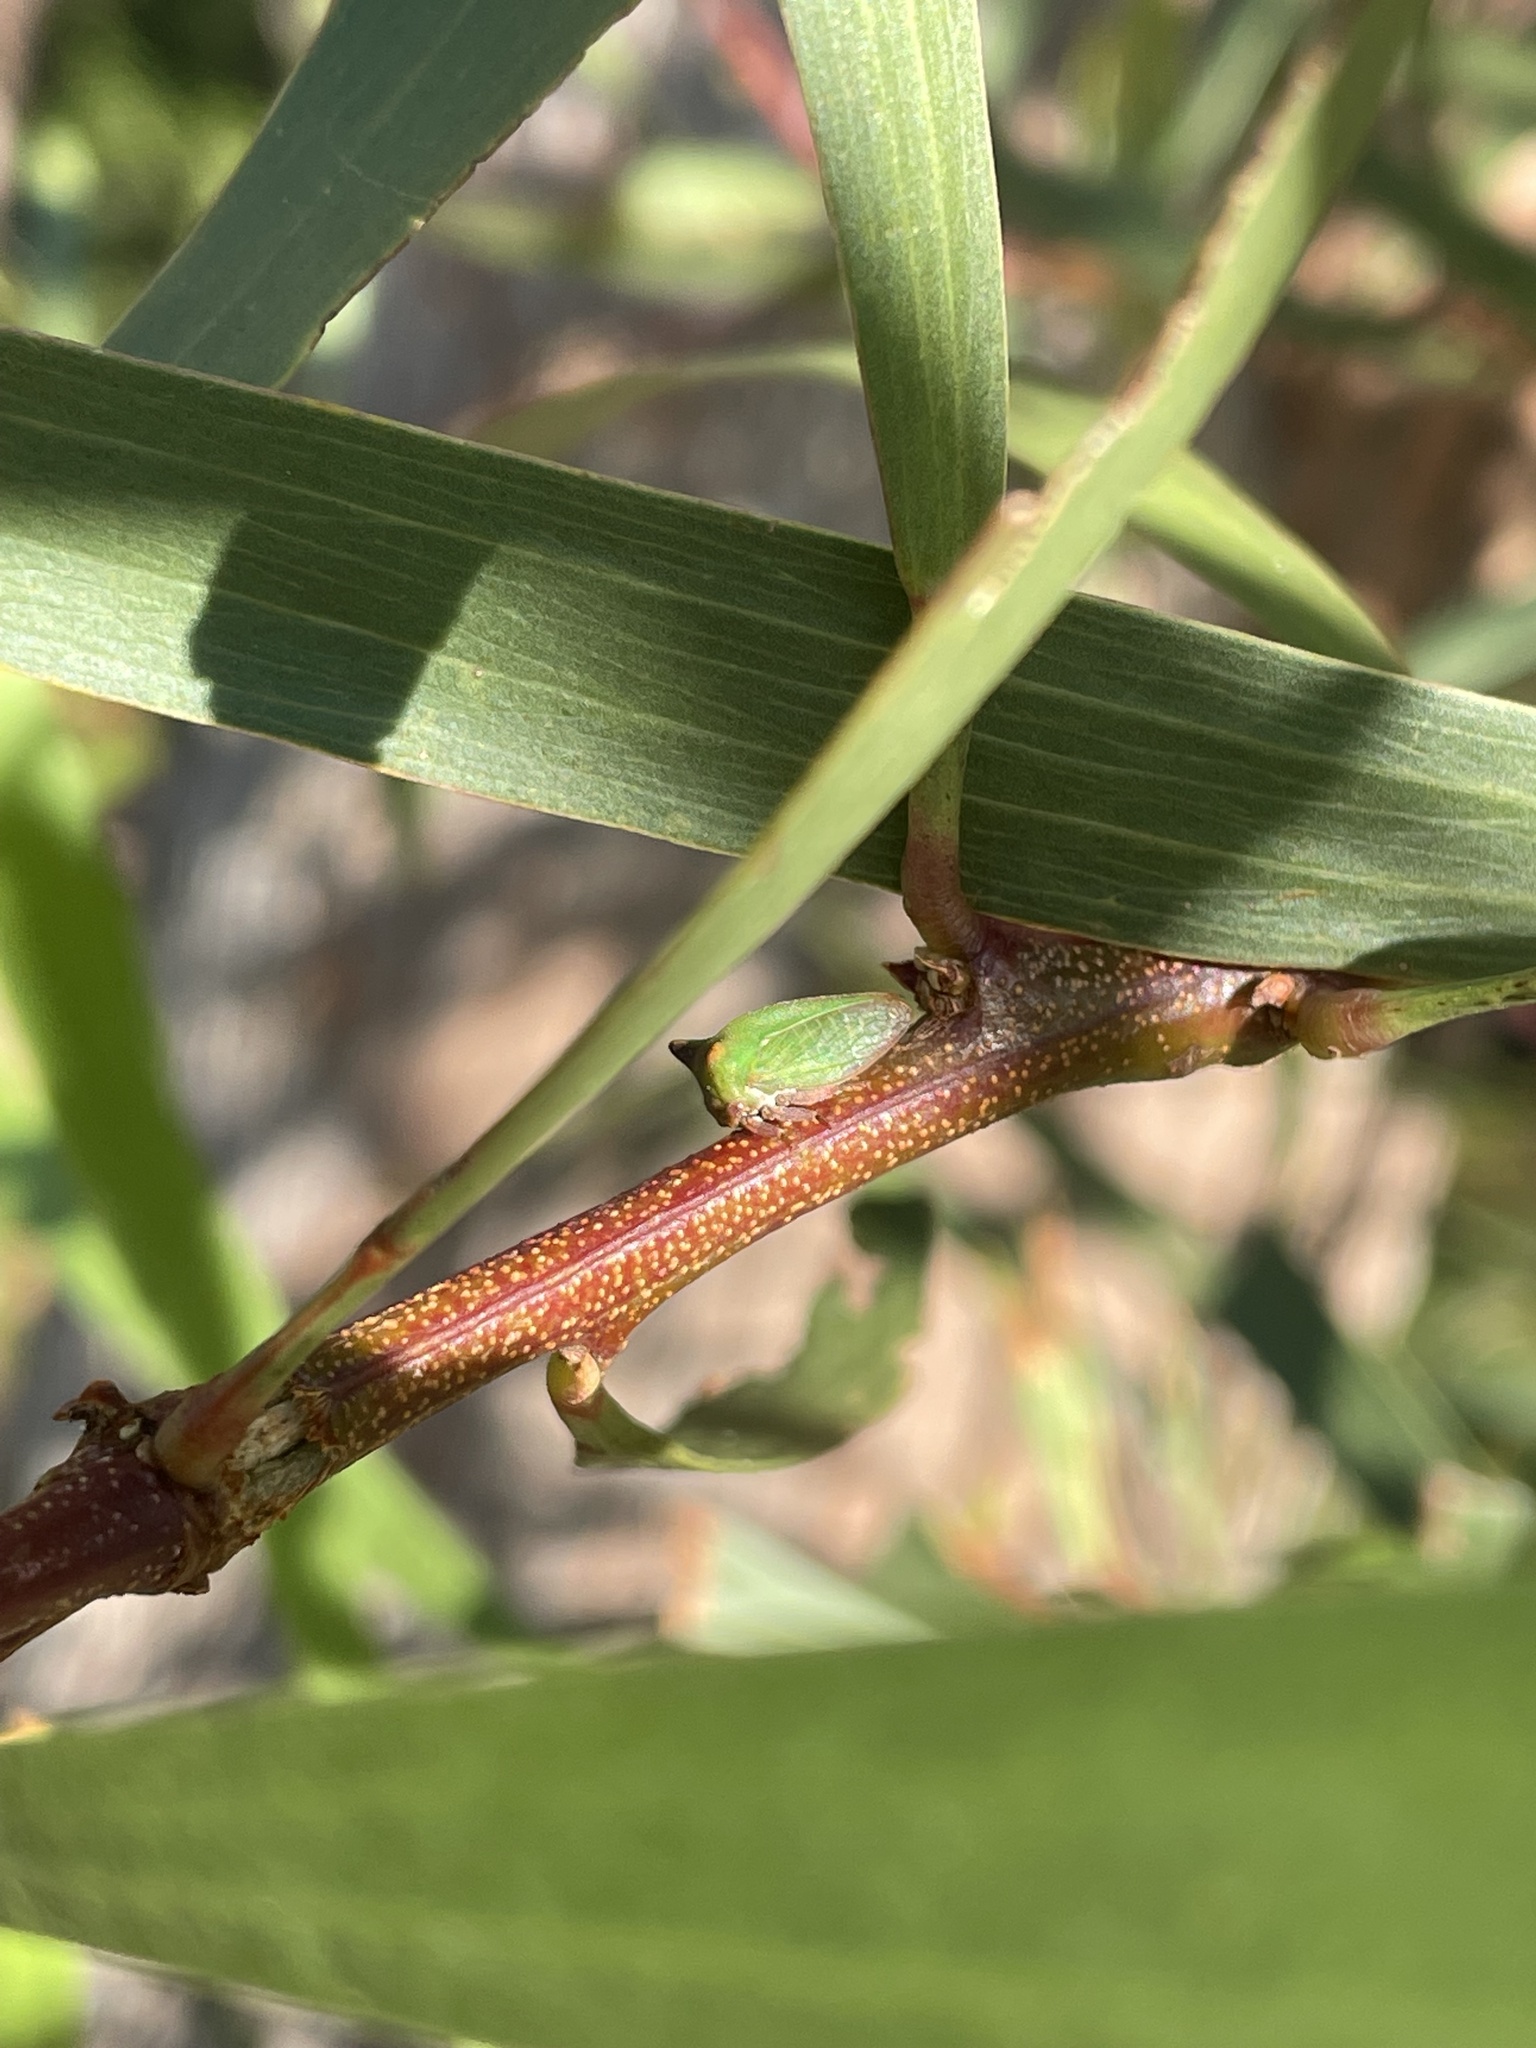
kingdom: Animalia
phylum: Arthropoda
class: Insecta
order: Hemiptera
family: Membracidae
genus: Sextius
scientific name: Sextius virescens
